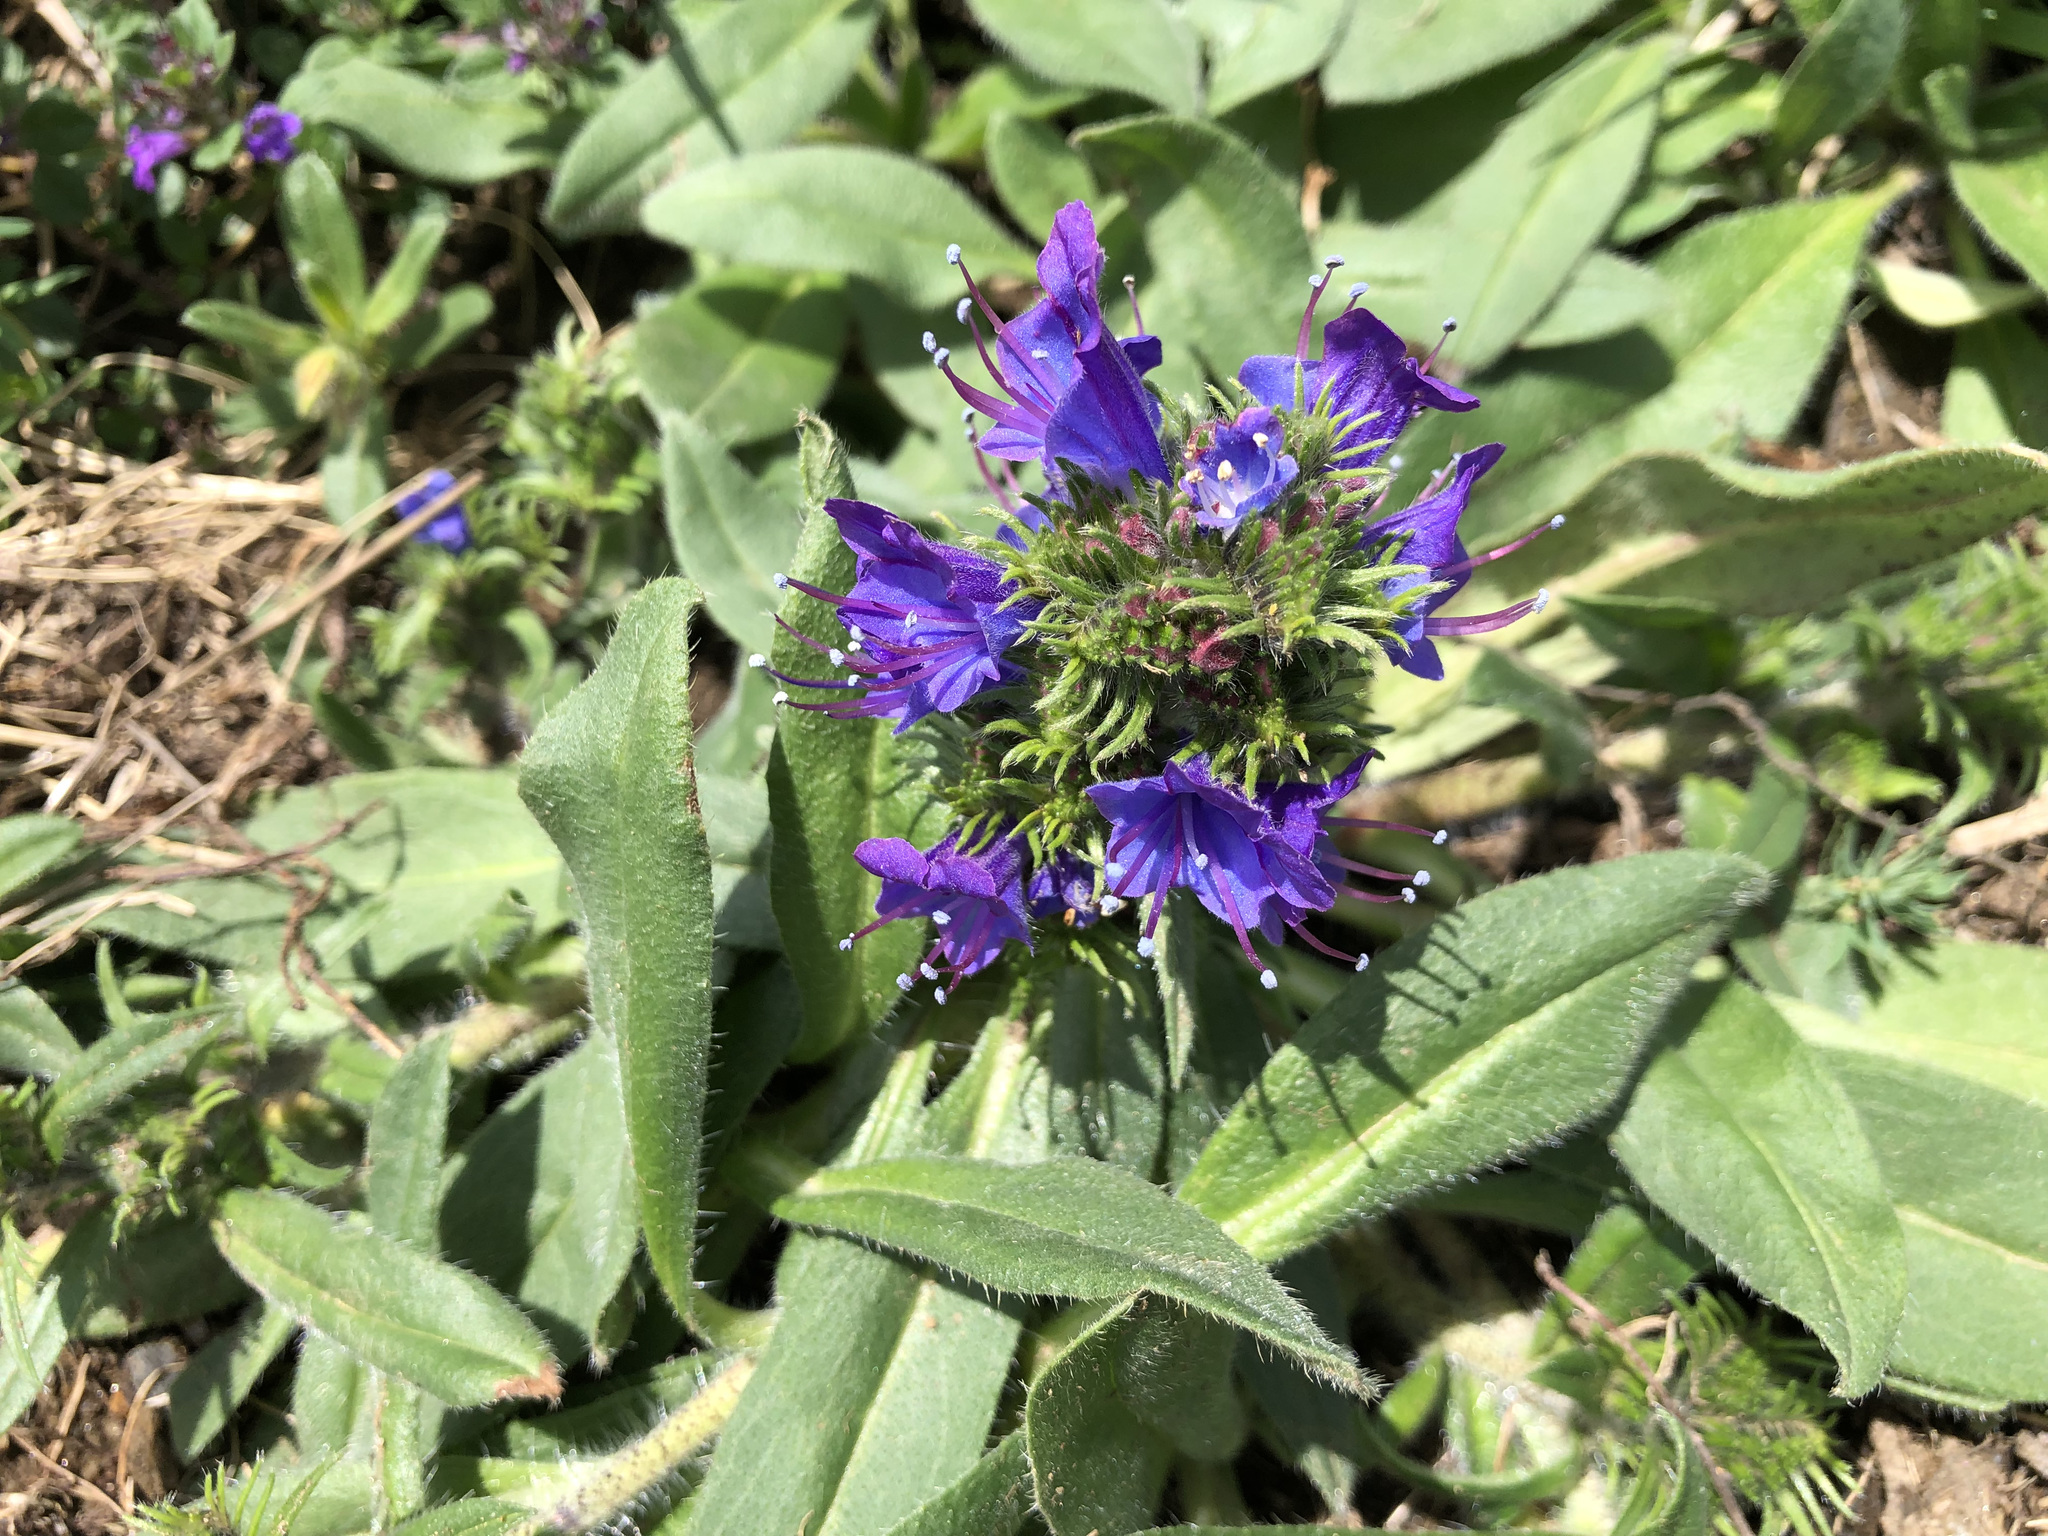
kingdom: Plantae
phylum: Tracheophyta
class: Magnoliopsida
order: Boraginales
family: Boraginaceae
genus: Echium
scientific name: Echium vulgare
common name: Common viper's bugloss
